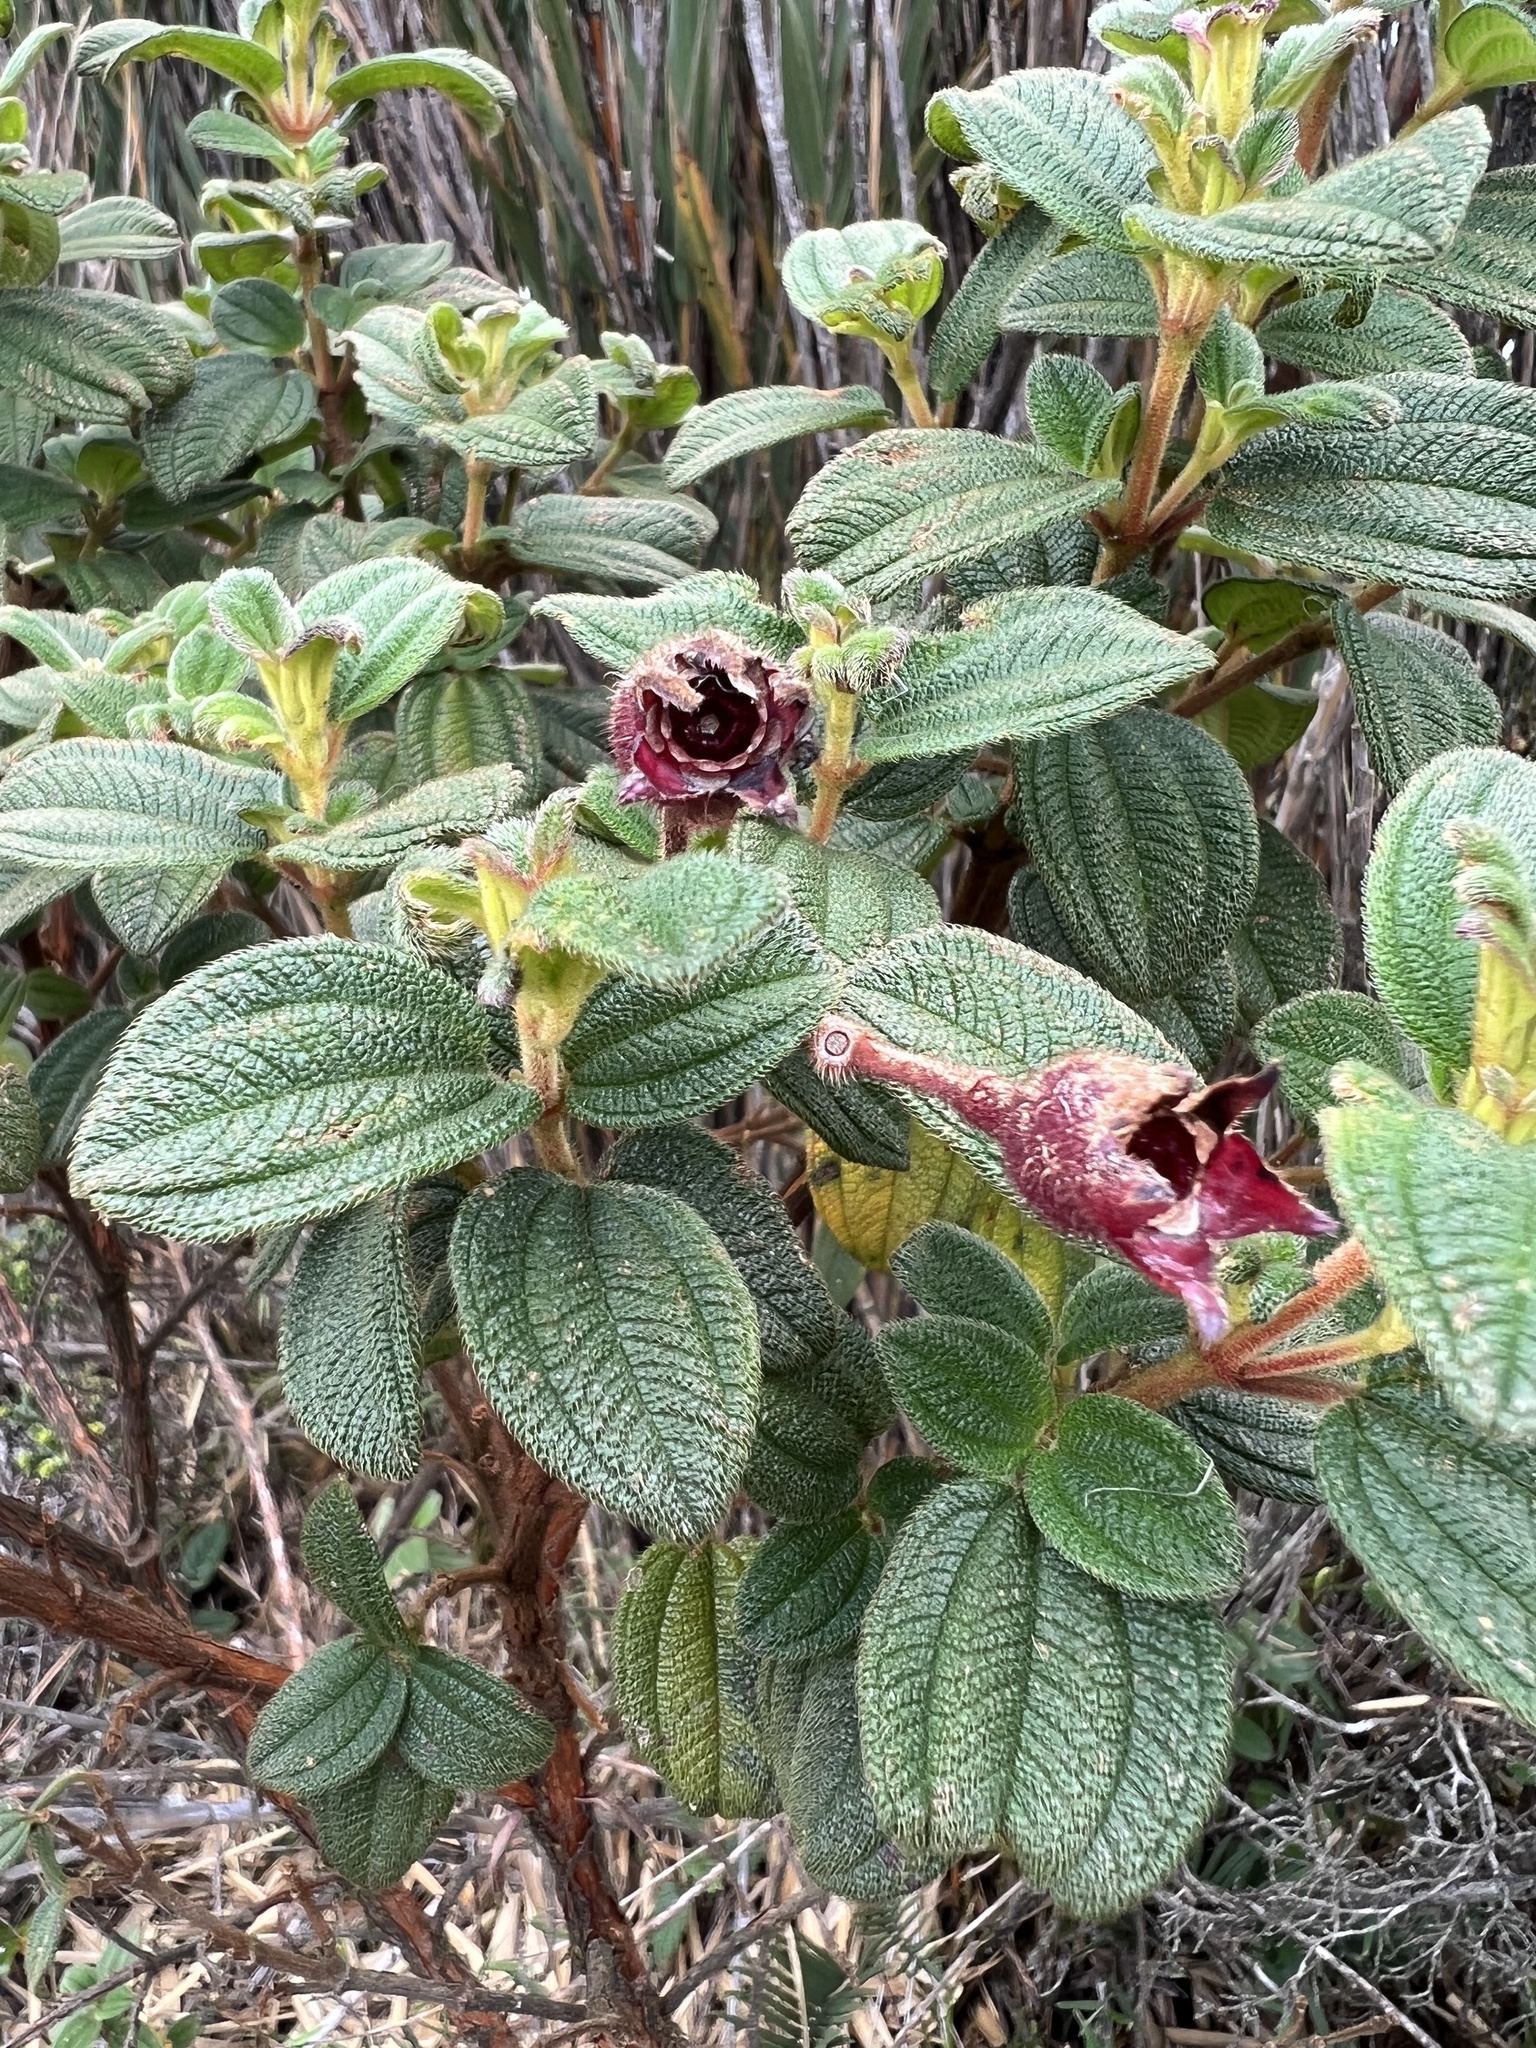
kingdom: Plantae
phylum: Tracheophyta
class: Magnoliopsida
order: Myrtales
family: Melastomataceae
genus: Chaetogastra
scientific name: Chaetogastra grossa
